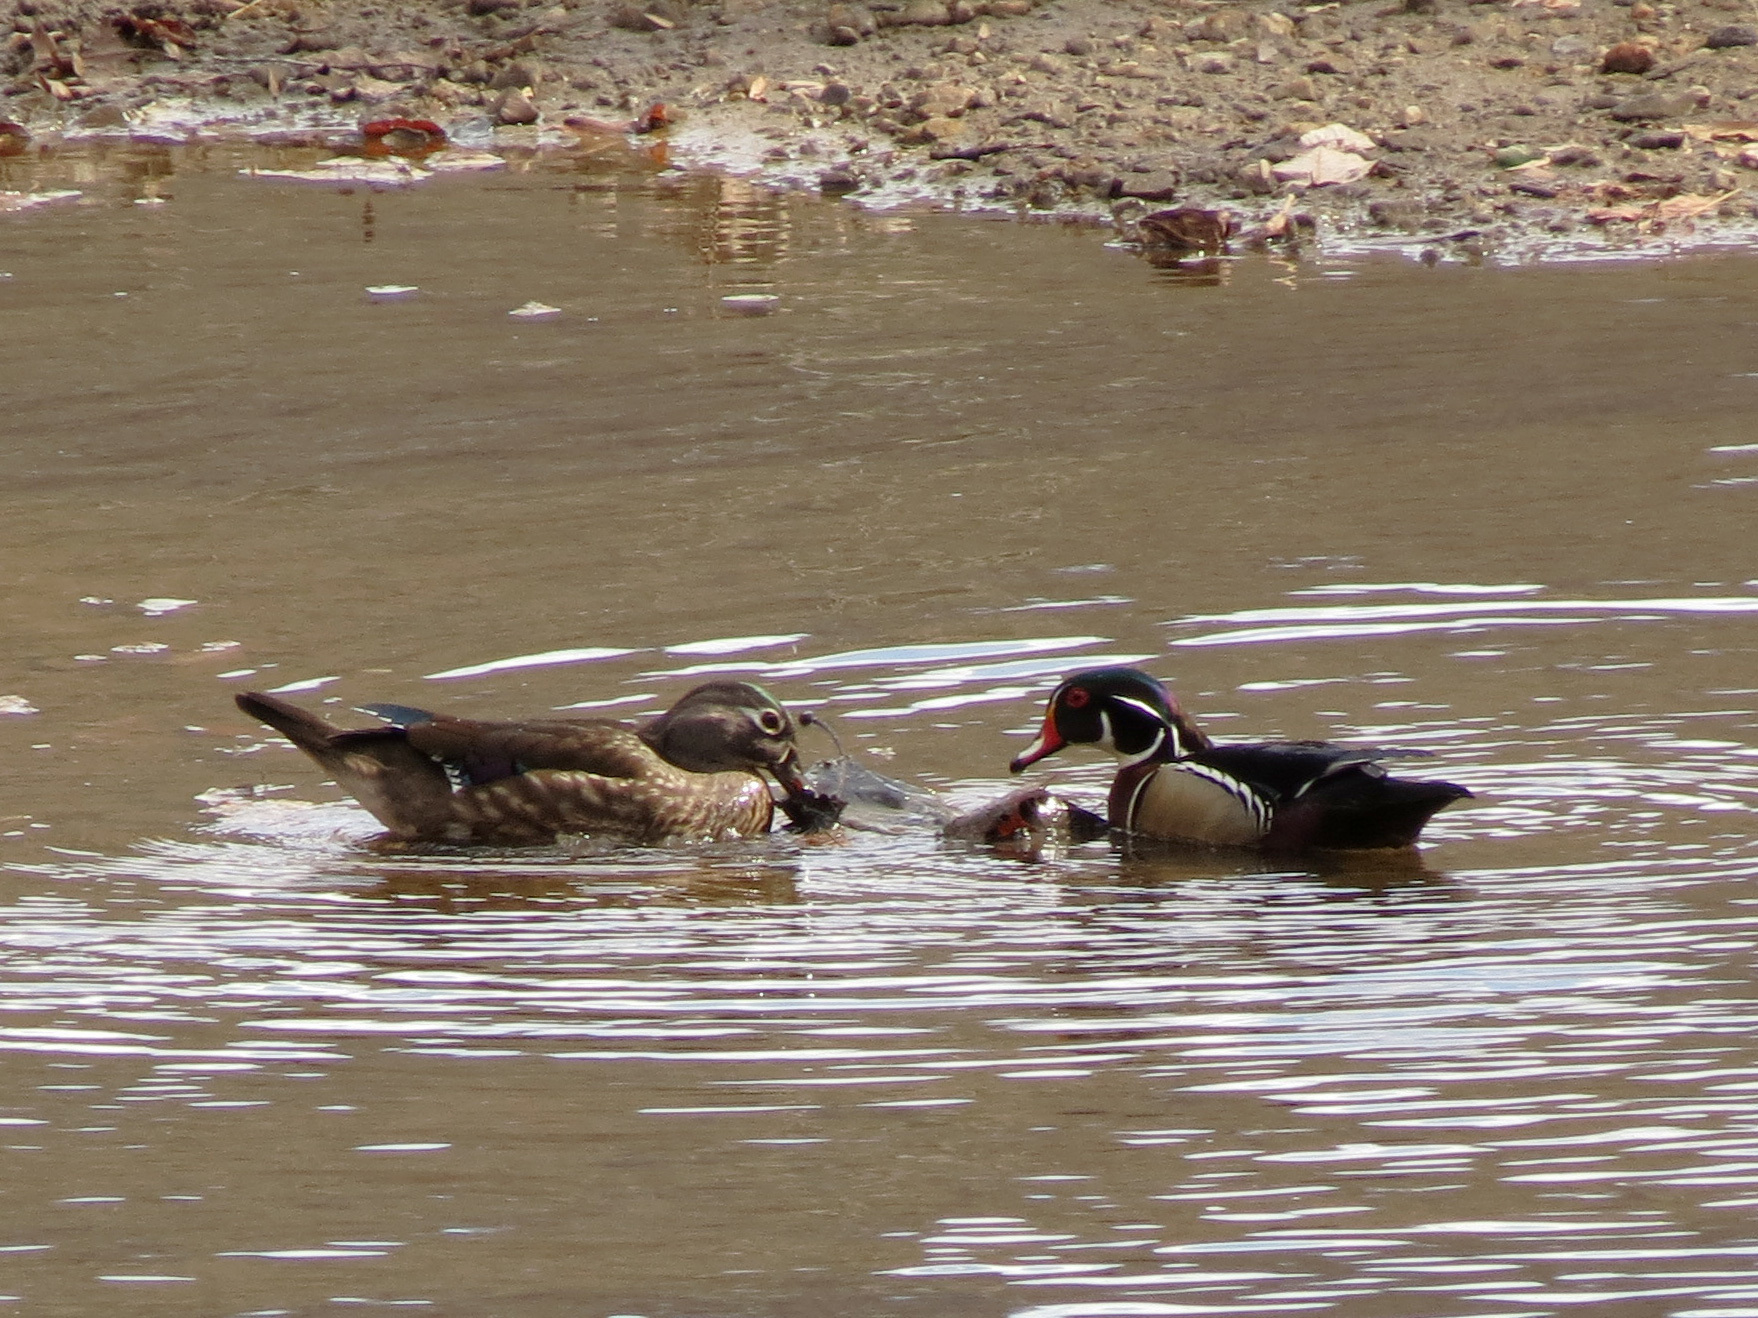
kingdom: Animalia
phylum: Chordata
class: Aves
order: Anseriformes
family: Anatidae
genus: Aix
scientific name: Aix sponsa
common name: Wood duck
